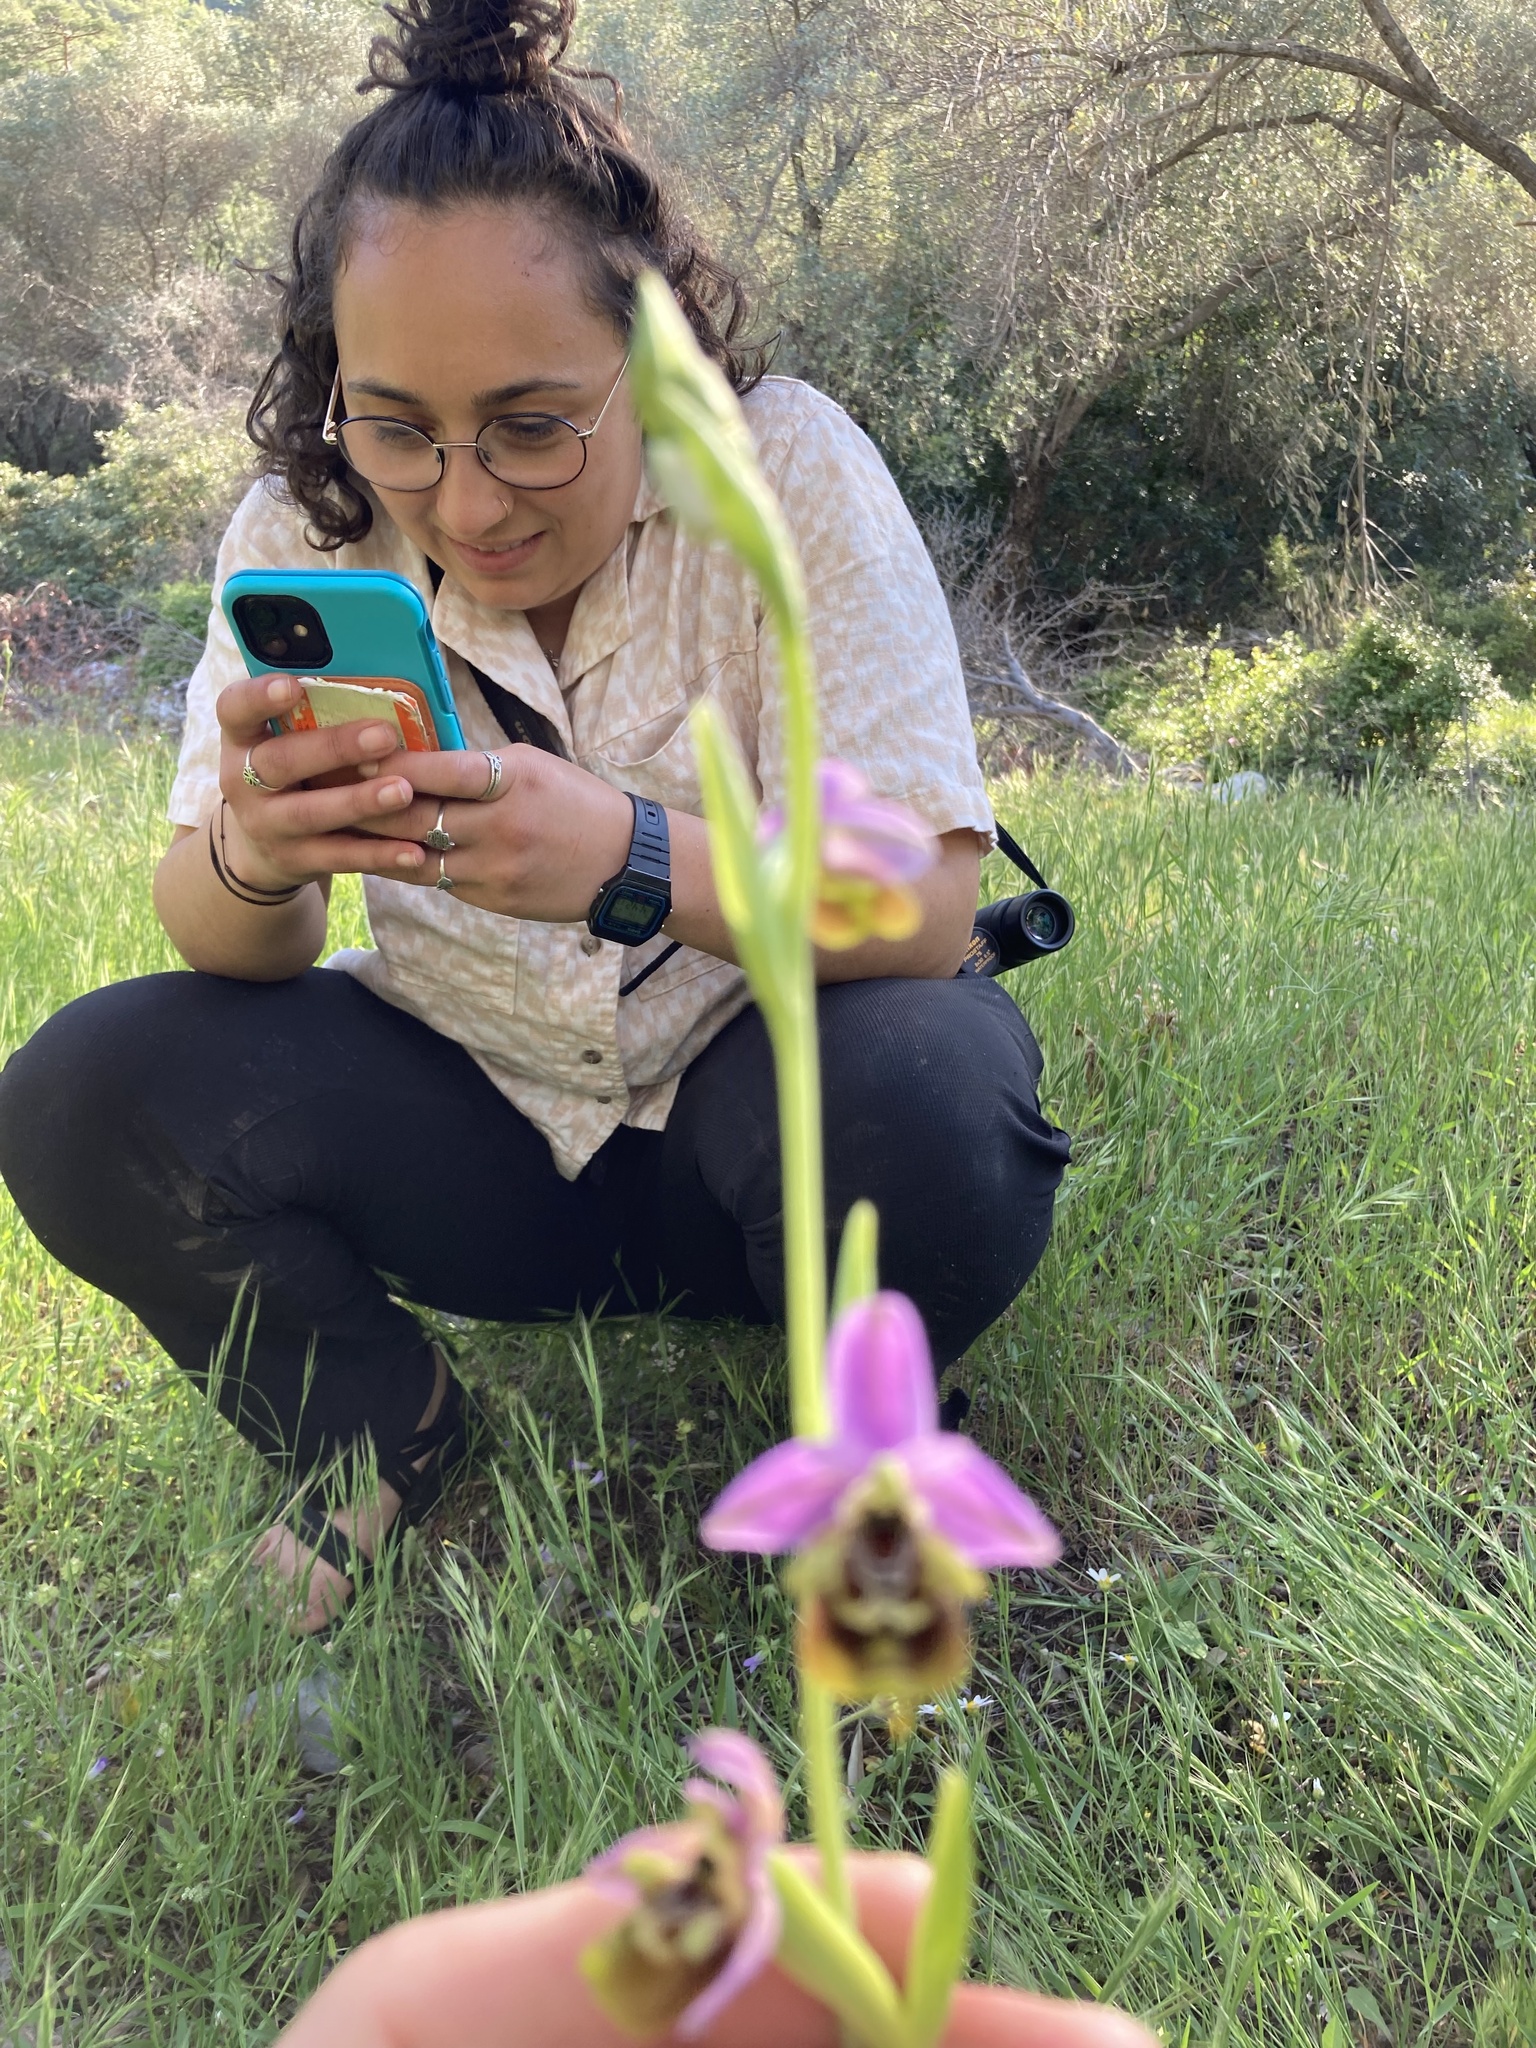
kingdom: Plantae
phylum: Tracheophyta
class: Liliopsida
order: Asparagales
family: Orchidaceae
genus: Ophrys
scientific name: Ophrys holosericea
